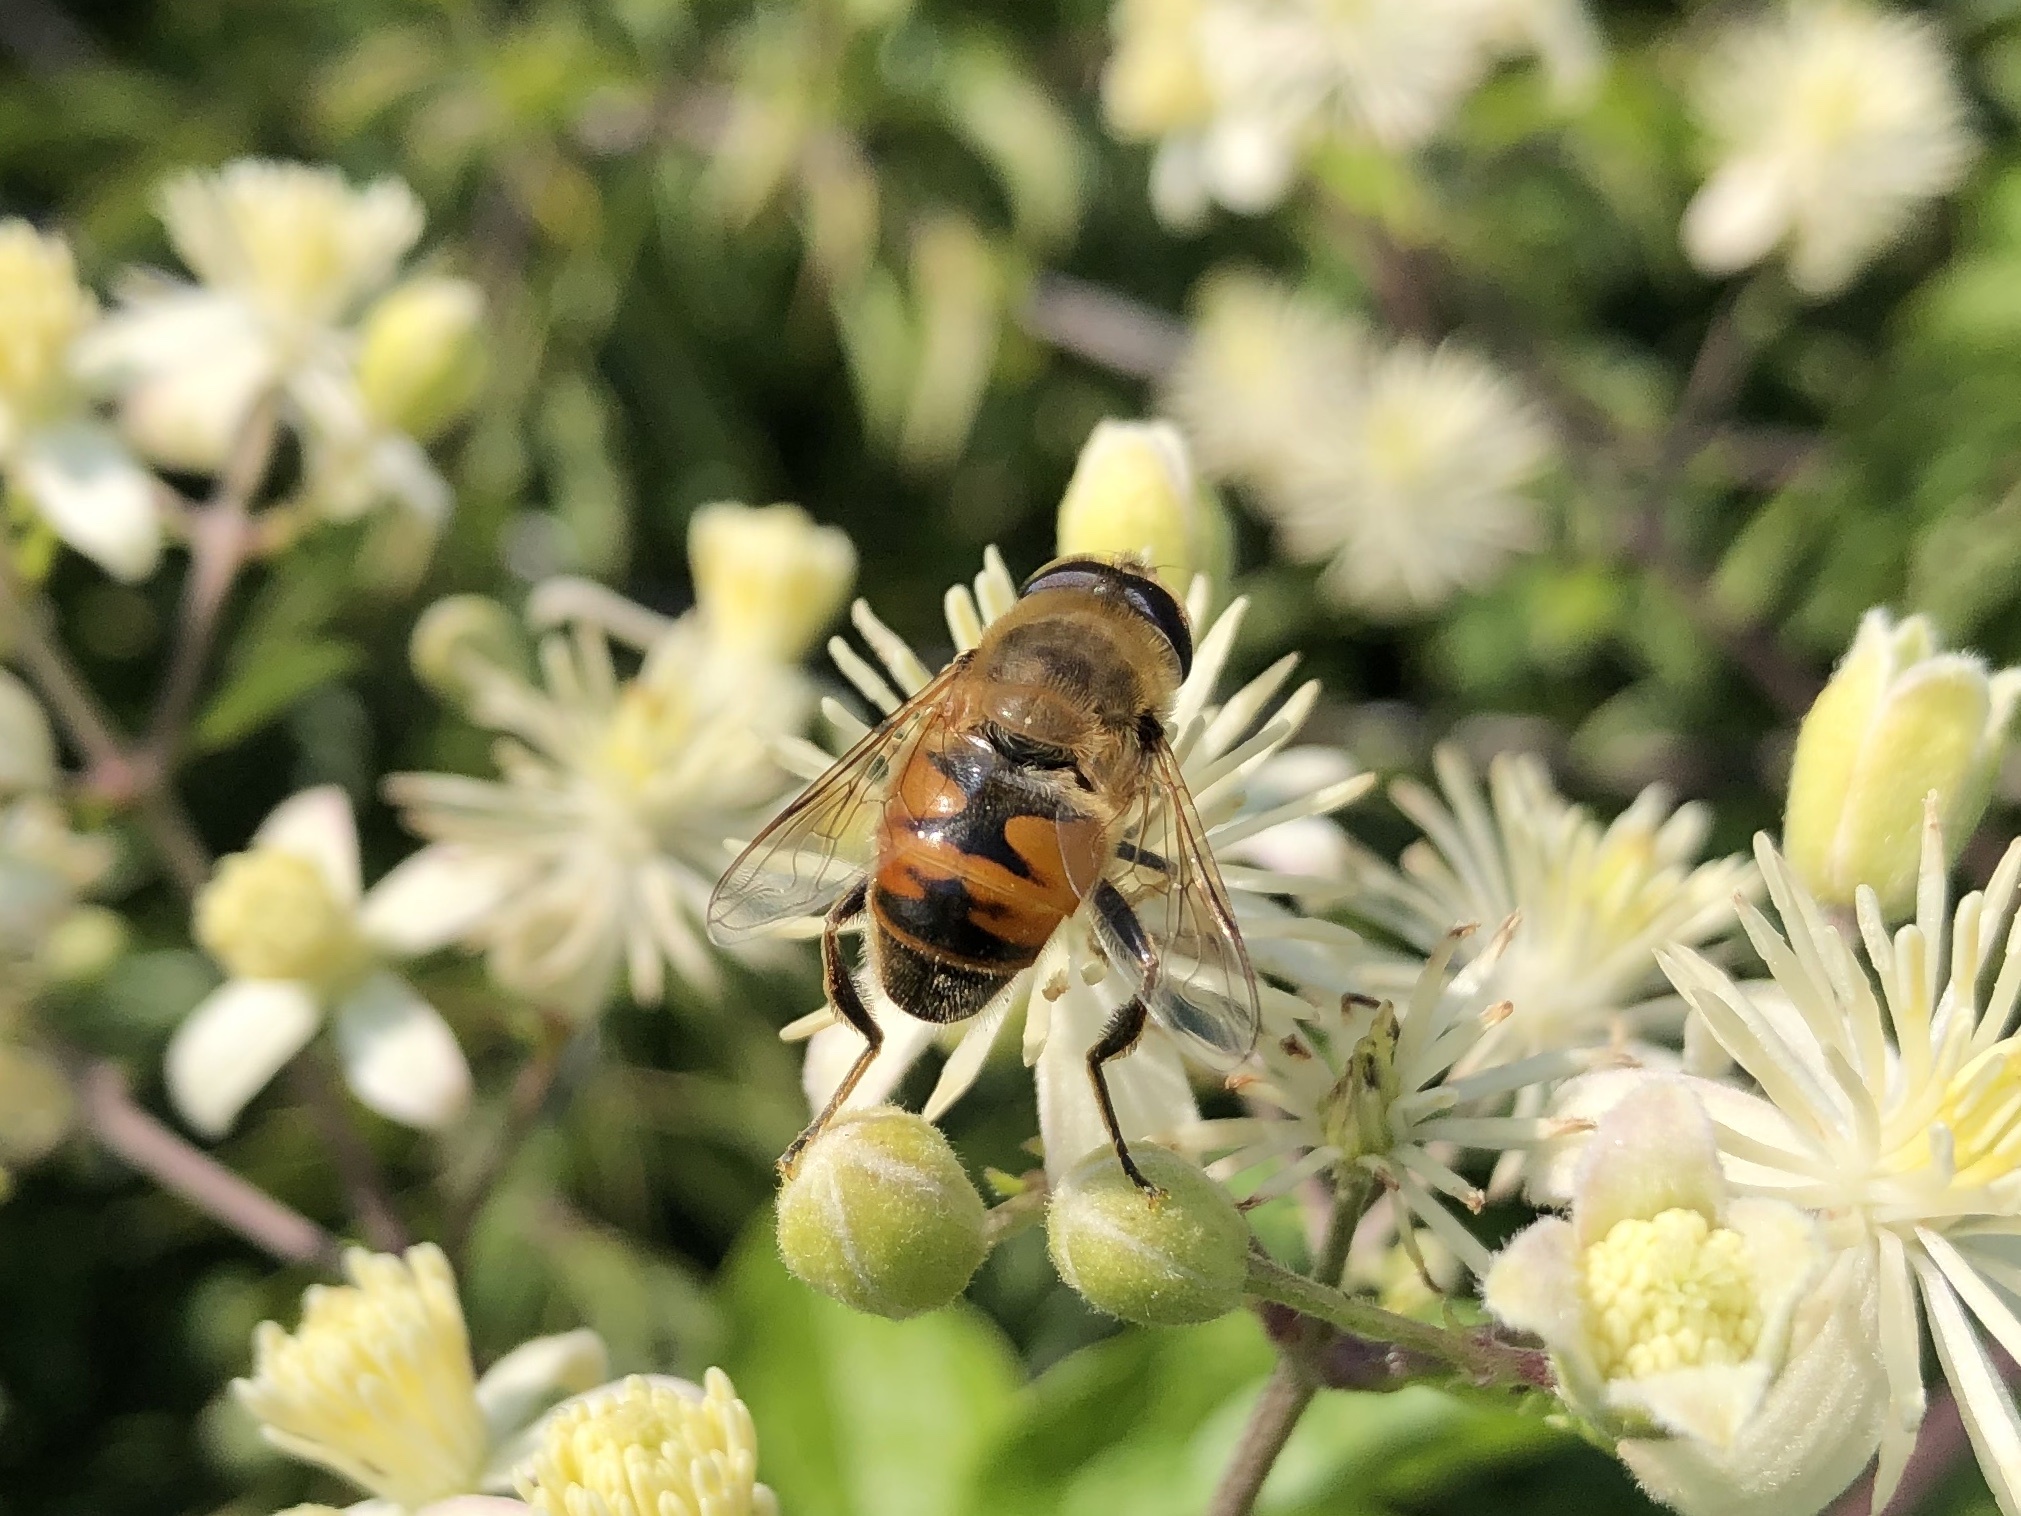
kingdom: Animalia
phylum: Arthropoda
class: Insecta
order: Diptera
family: Syrphidae
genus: Eristalis
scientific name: Eristalis tenax
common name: Drone fly
